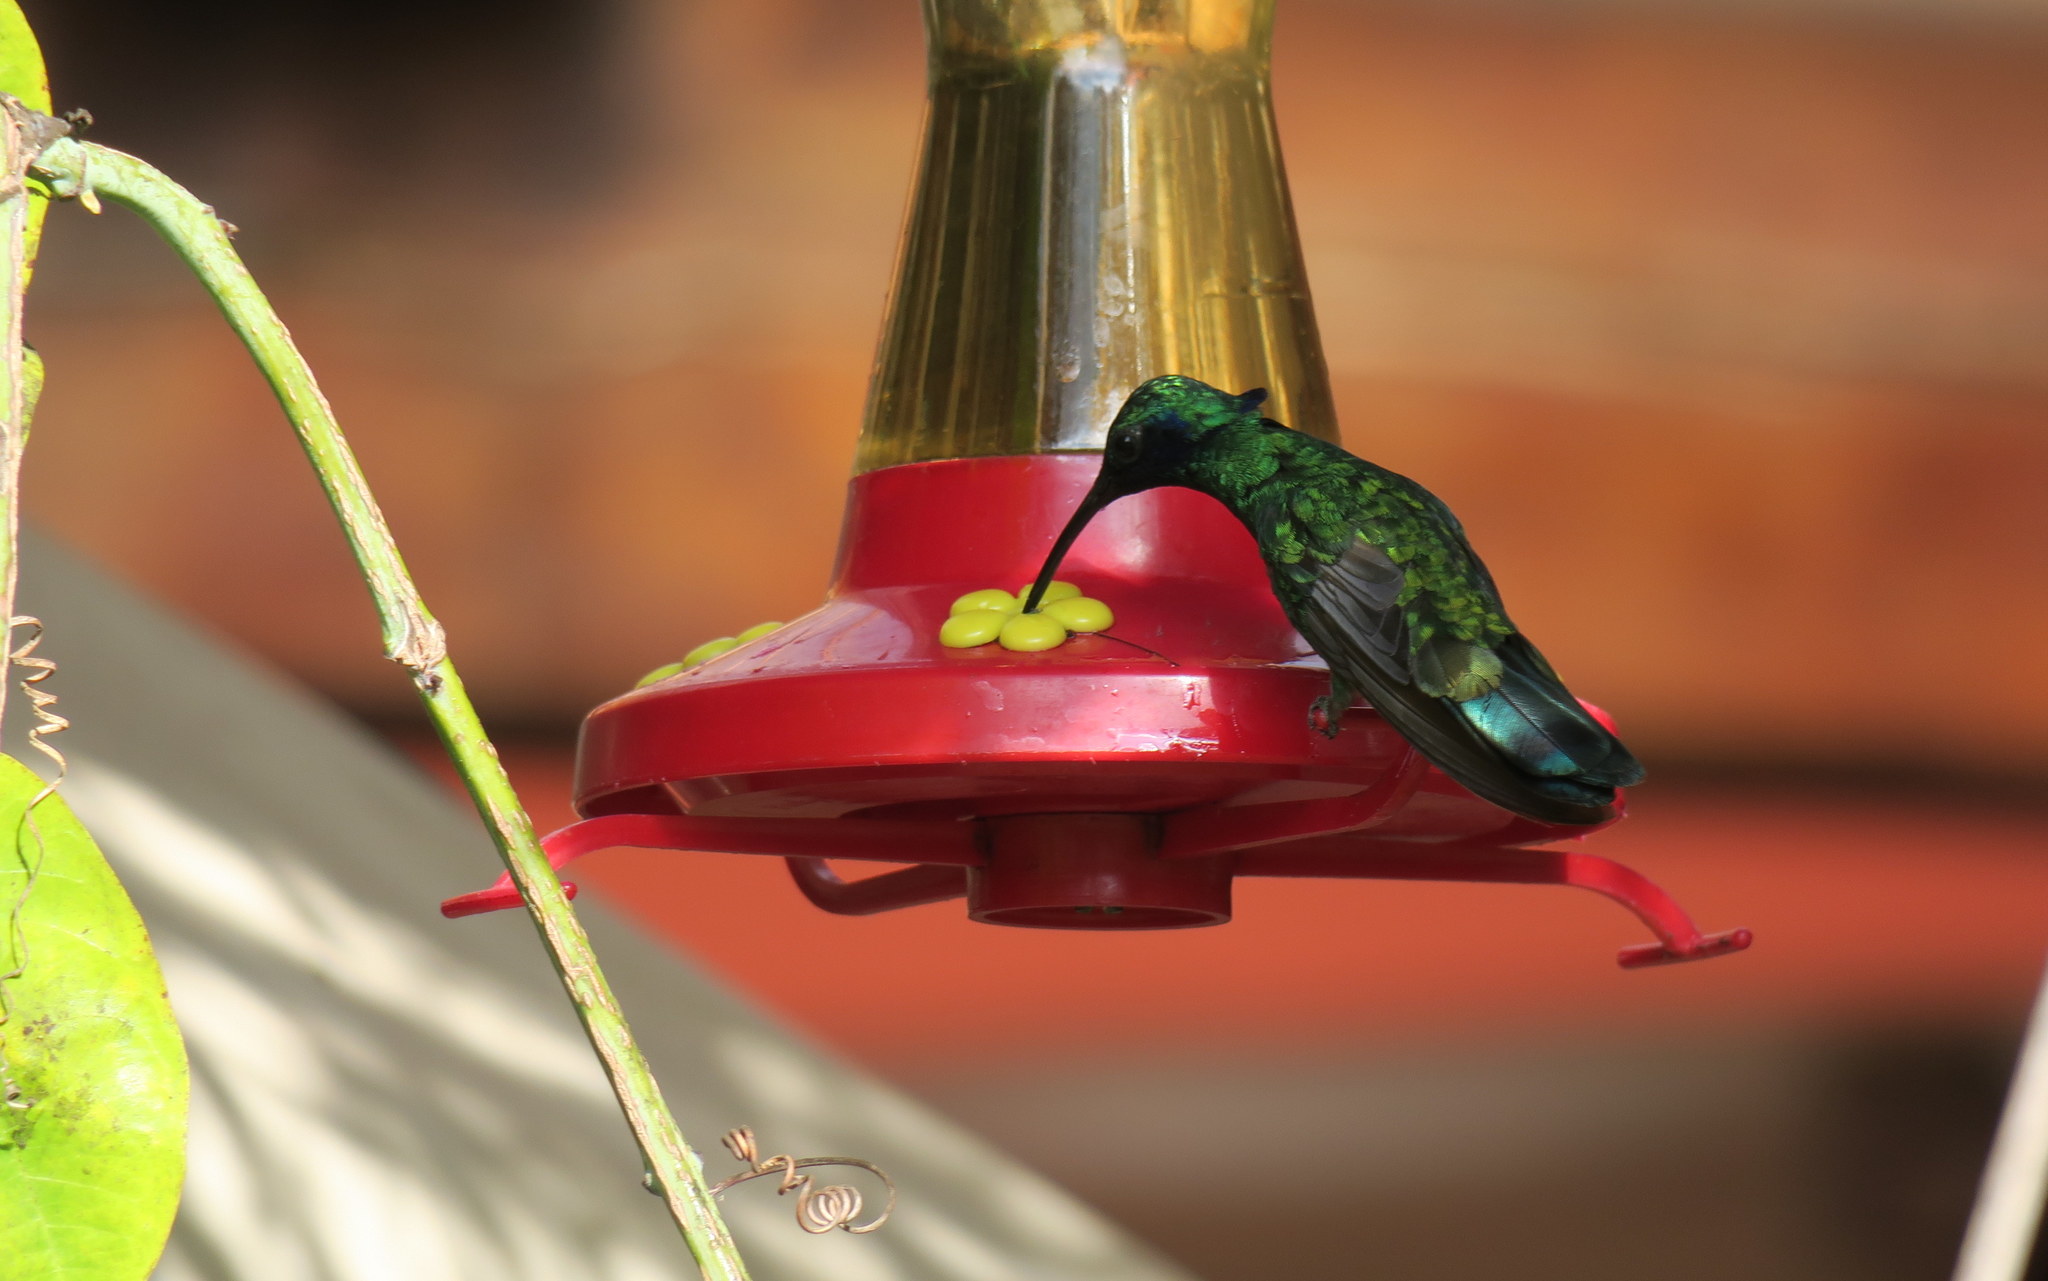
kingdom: Animalia
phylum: Chordata
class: Aves
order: Apodiformes
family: Trochilidae
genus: Colibri
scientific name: Colibri coruscans
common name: Sparkling violetear
